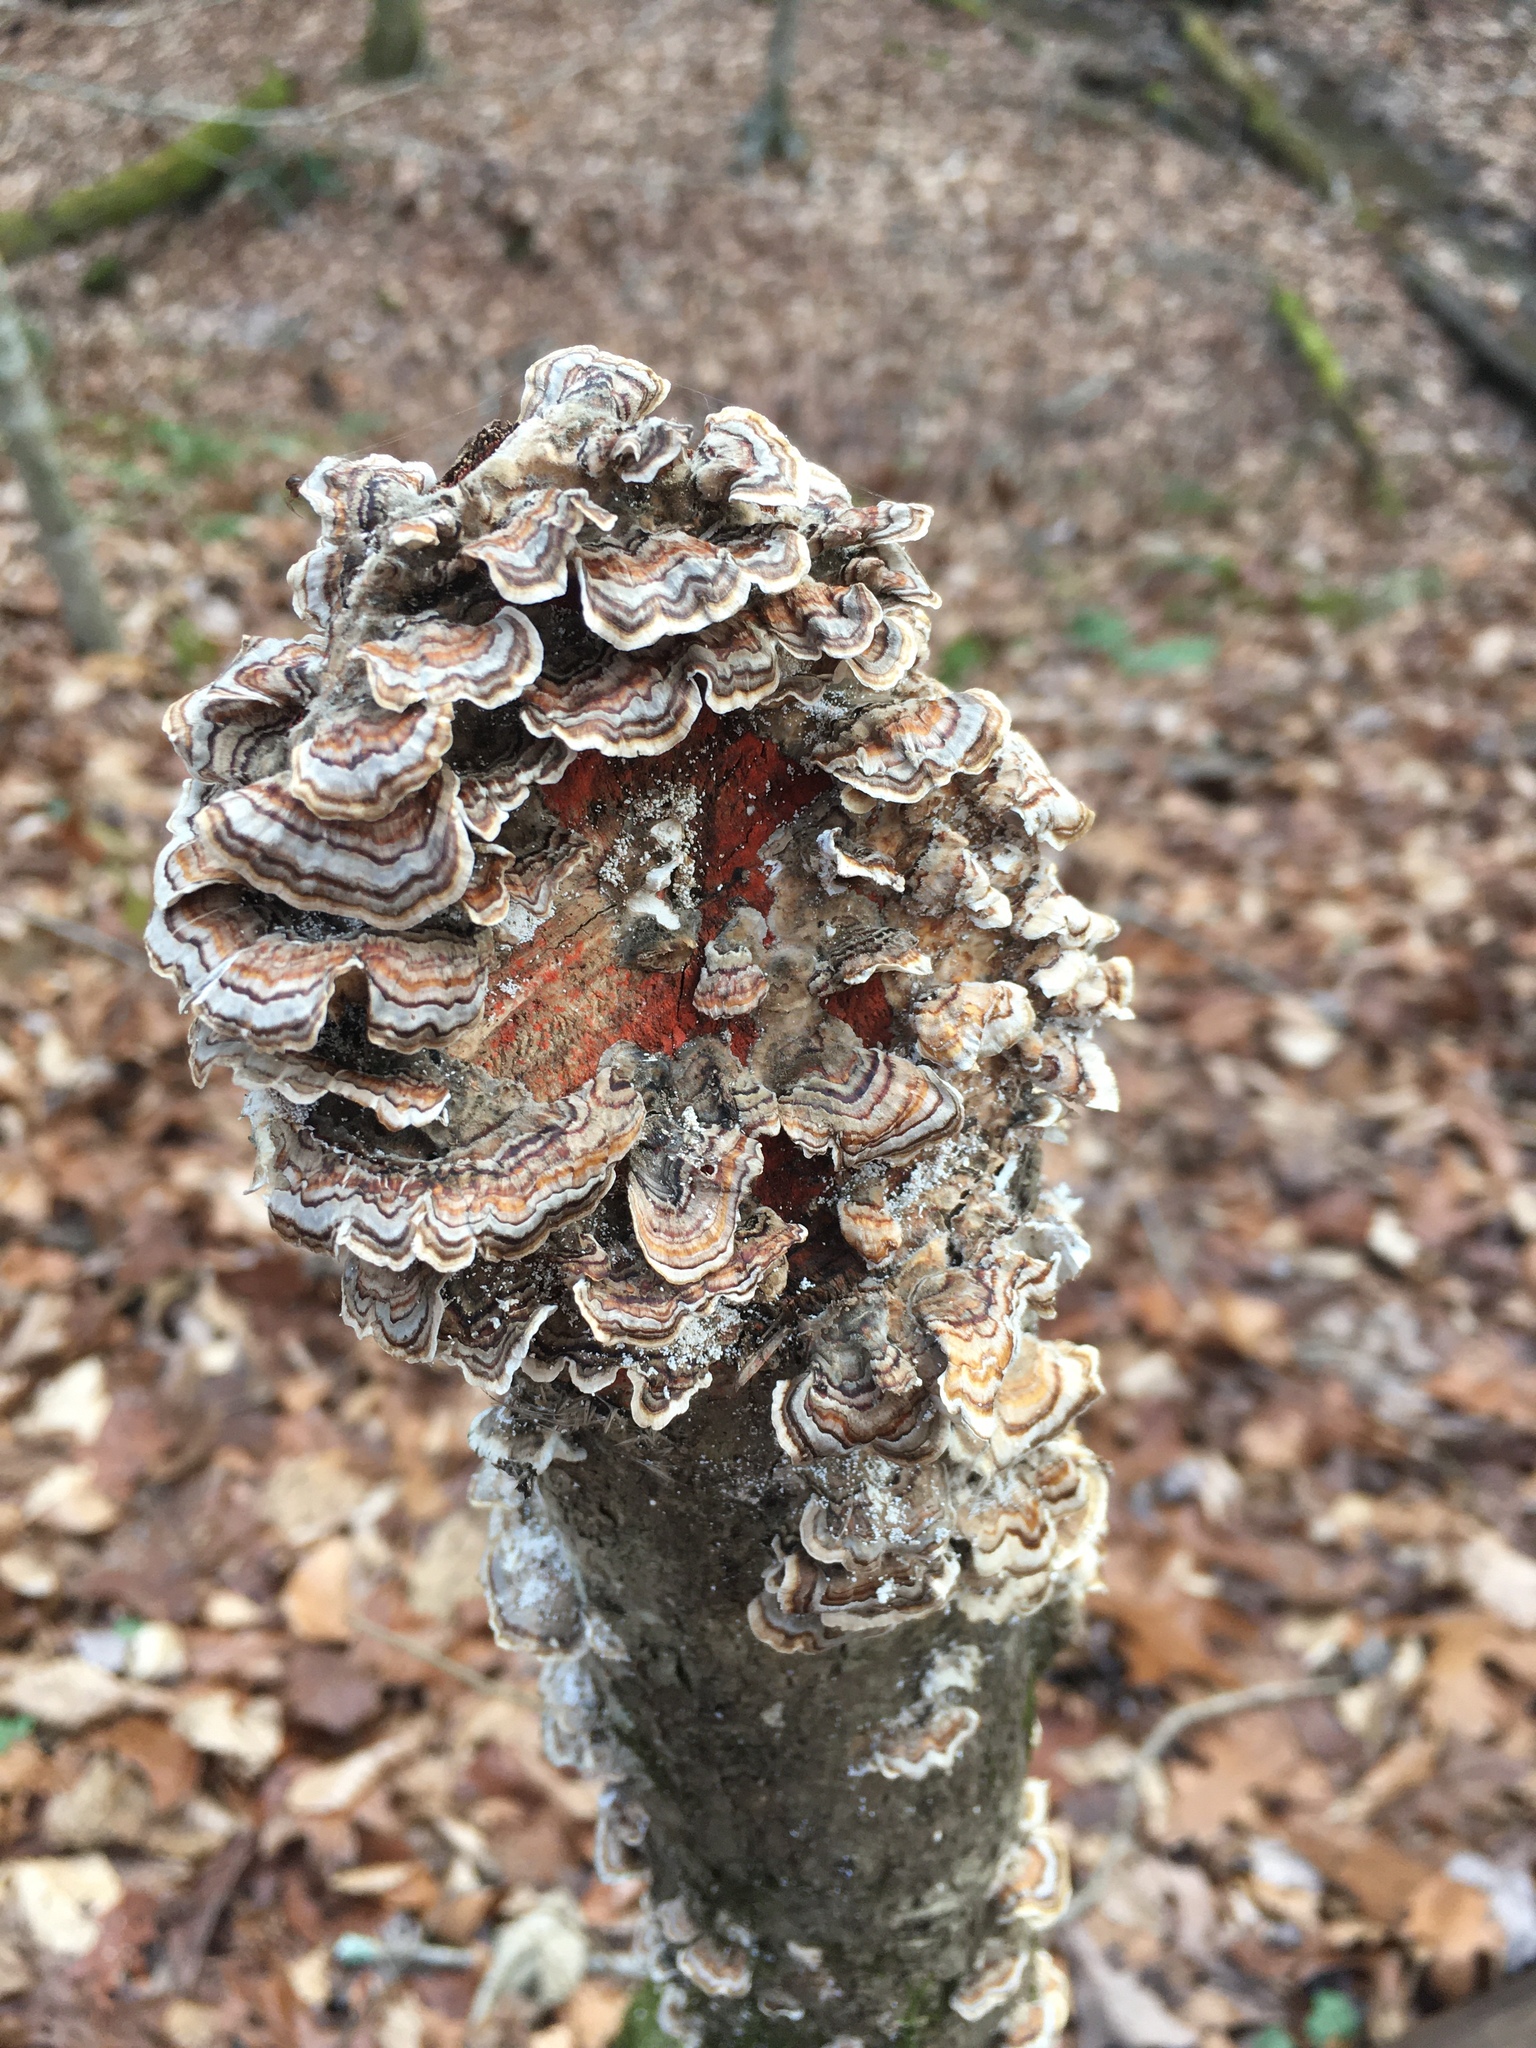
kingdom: Fungi
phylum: Basidiomycota
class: Agaricomycetes
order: Polyporales
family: Polyporaceae
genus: Trametes
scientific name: Trametes versicolor
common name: Turkeytail
